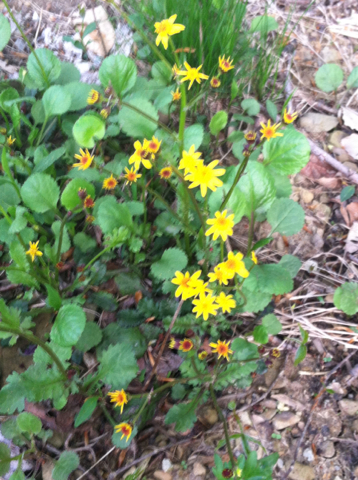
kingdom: Plantae
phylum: Tracheophyta
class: Magnoliopsida
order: Asterales
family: Asteraceae
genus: Packera
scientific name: Packera aurea
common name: Golden groundsel
